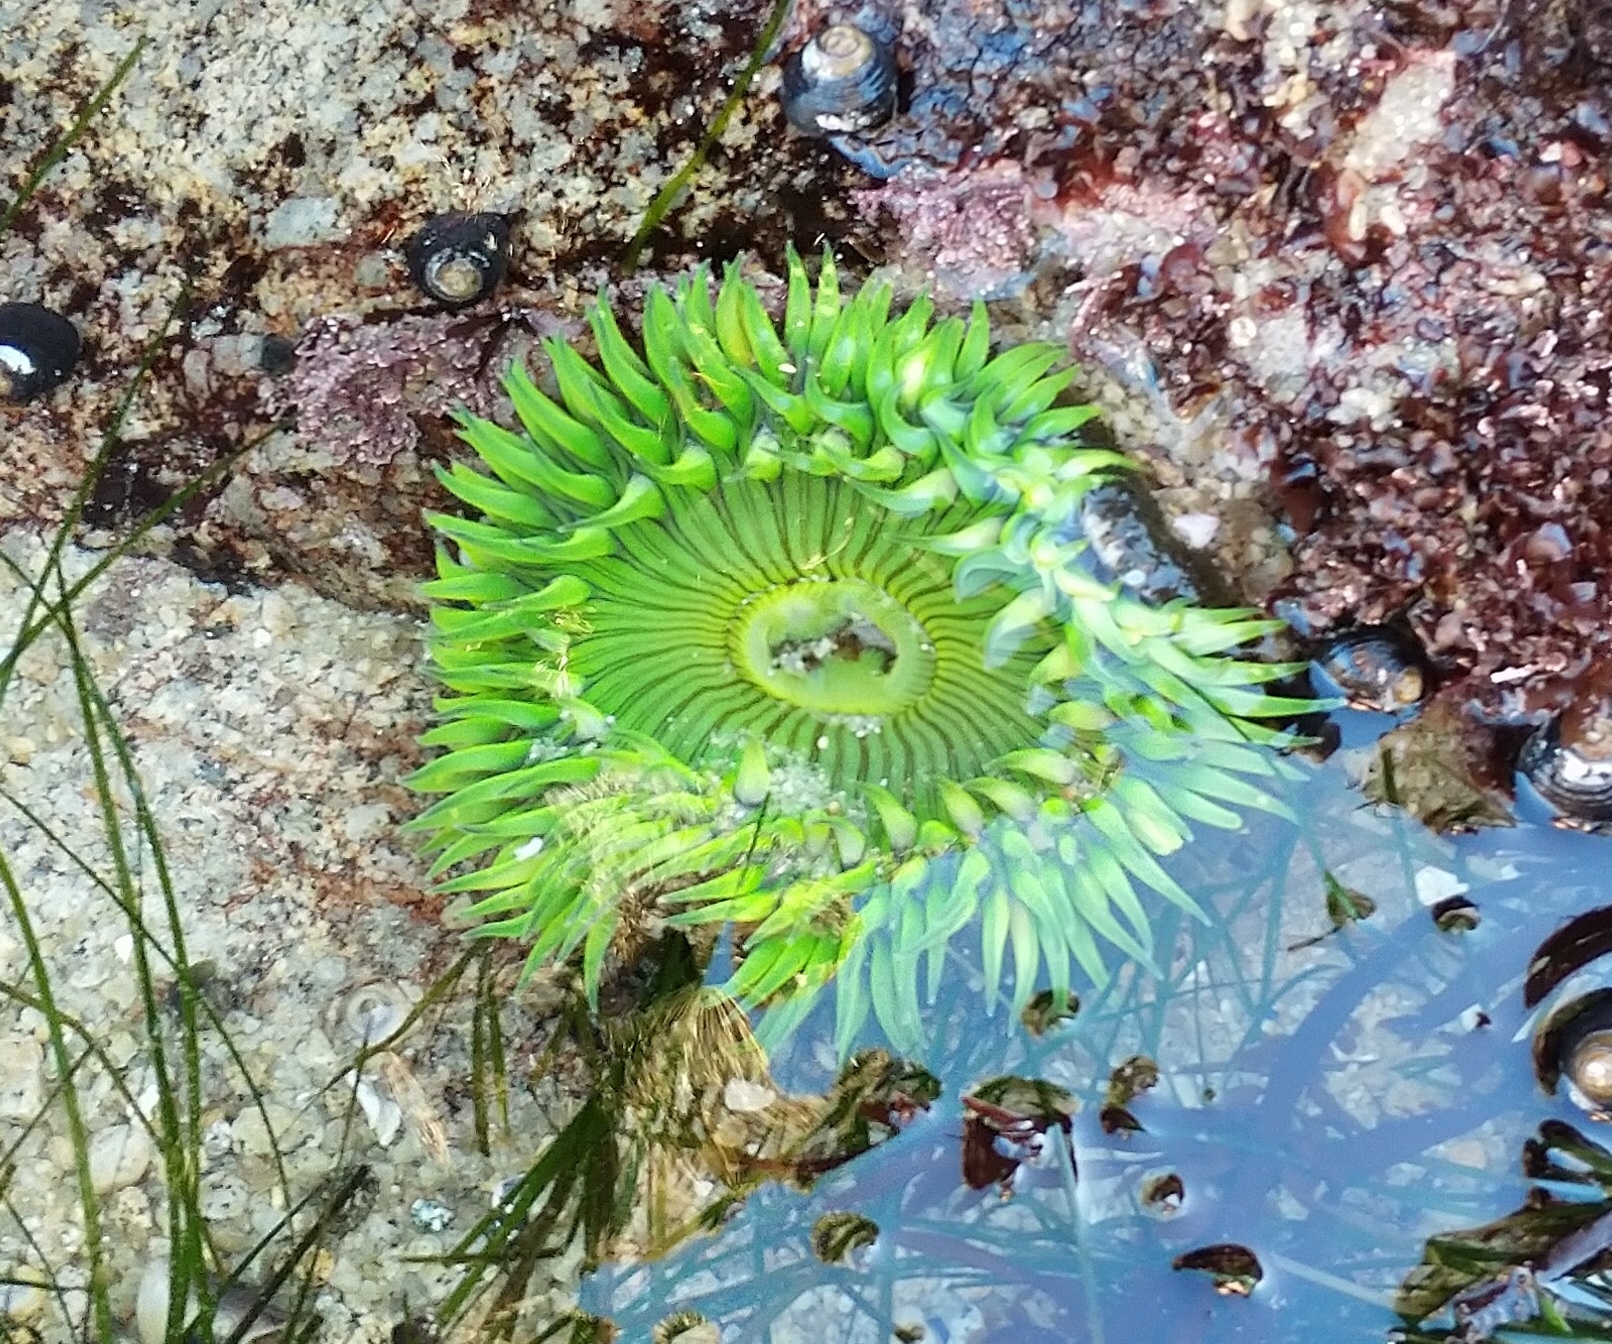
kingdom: Animalia
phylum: Cnidaria
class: Anthozoa
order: Actiniaria
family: Actiniidae
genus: Anthopleura
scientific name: Anthopleura sola
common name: Sun anemone
